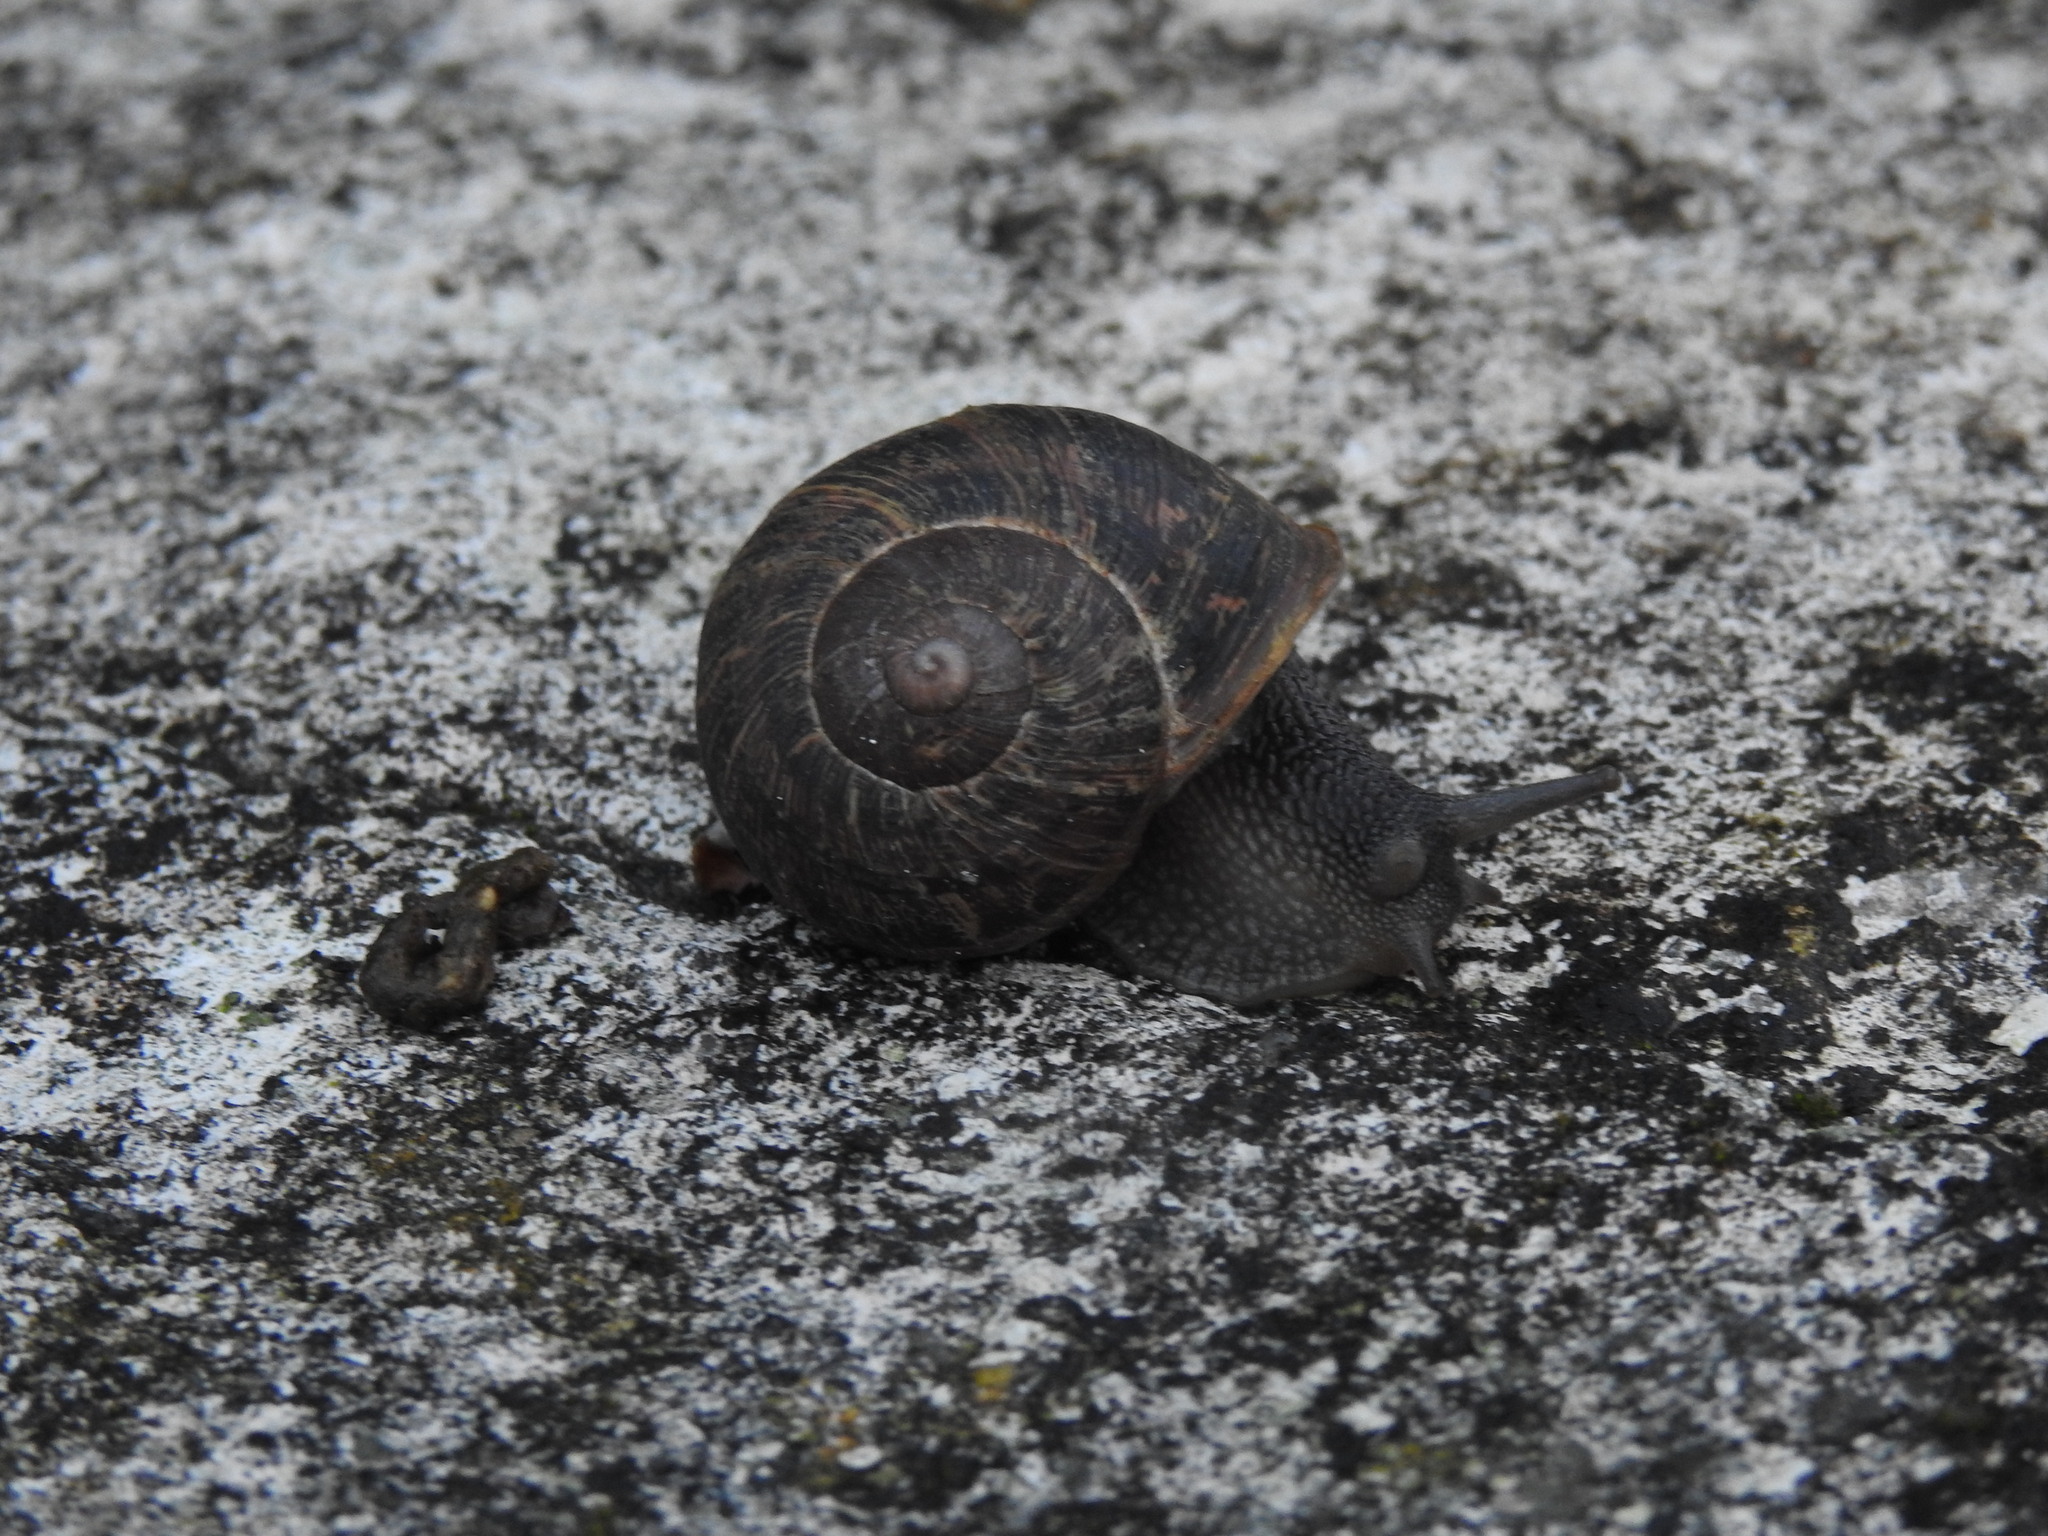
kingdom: Animalia
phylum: Mollusca
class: Gastropoda
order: Stylommatophora
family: Helicidae
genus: Cornu
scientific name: Cornu aspersum
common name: Brown garden snail
